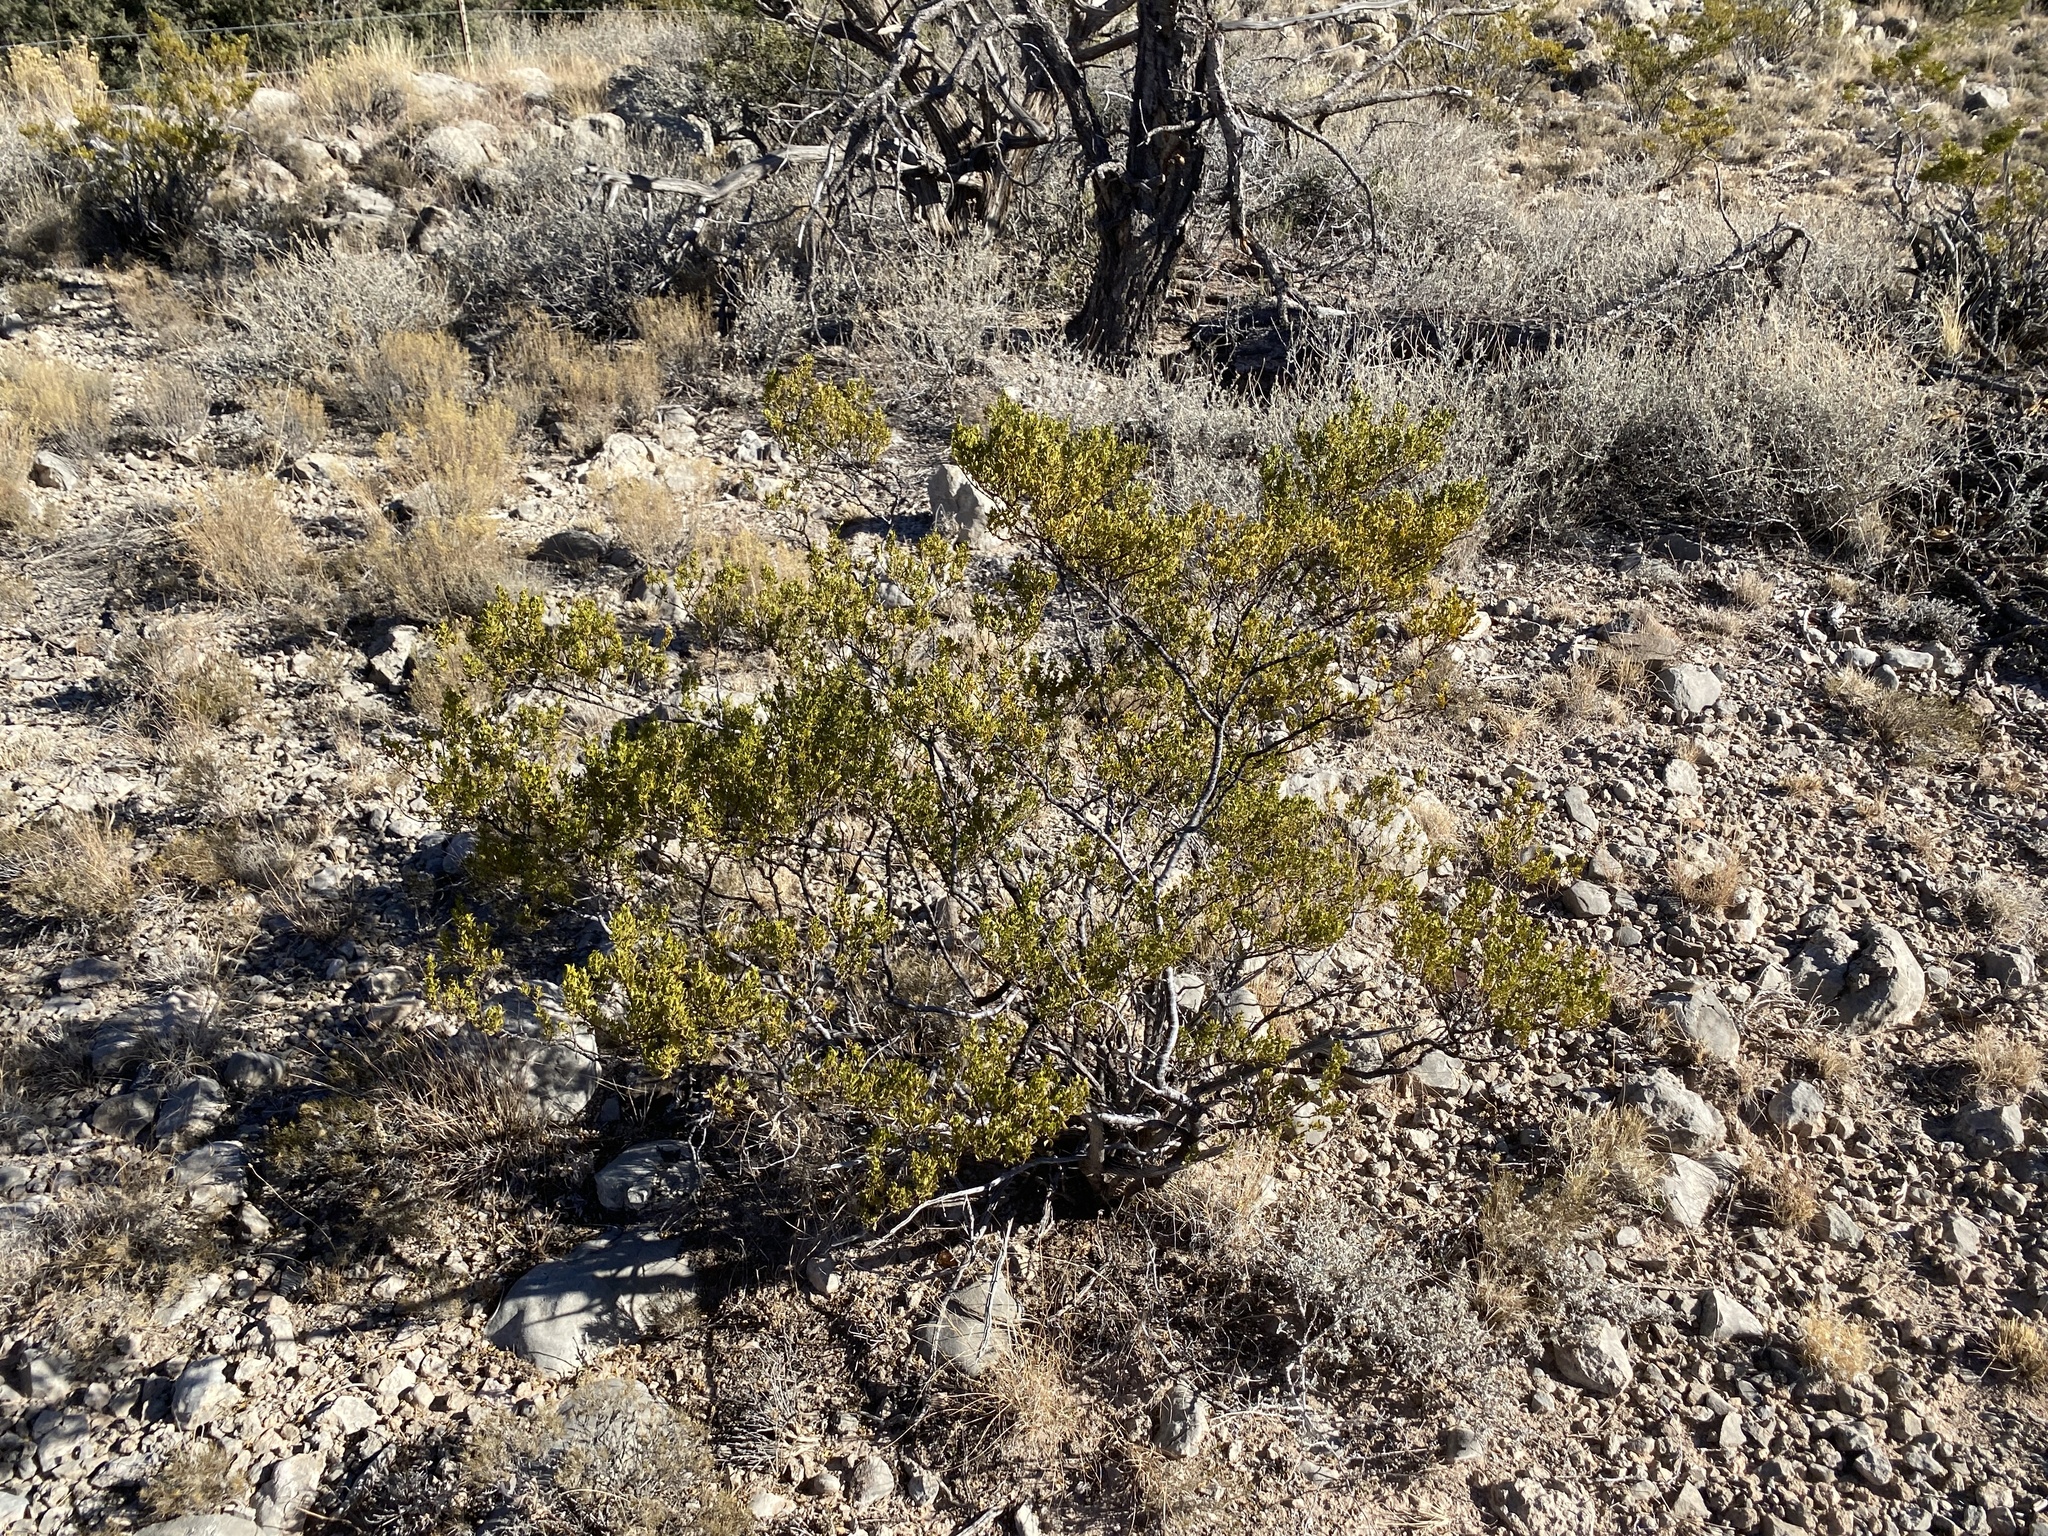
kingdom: Plantae
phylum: Tracheophyta
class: Magnoliopsida
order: Zygophyllales
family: Zygophyllaceae
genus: Larrea
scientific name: Larrea tridentata
